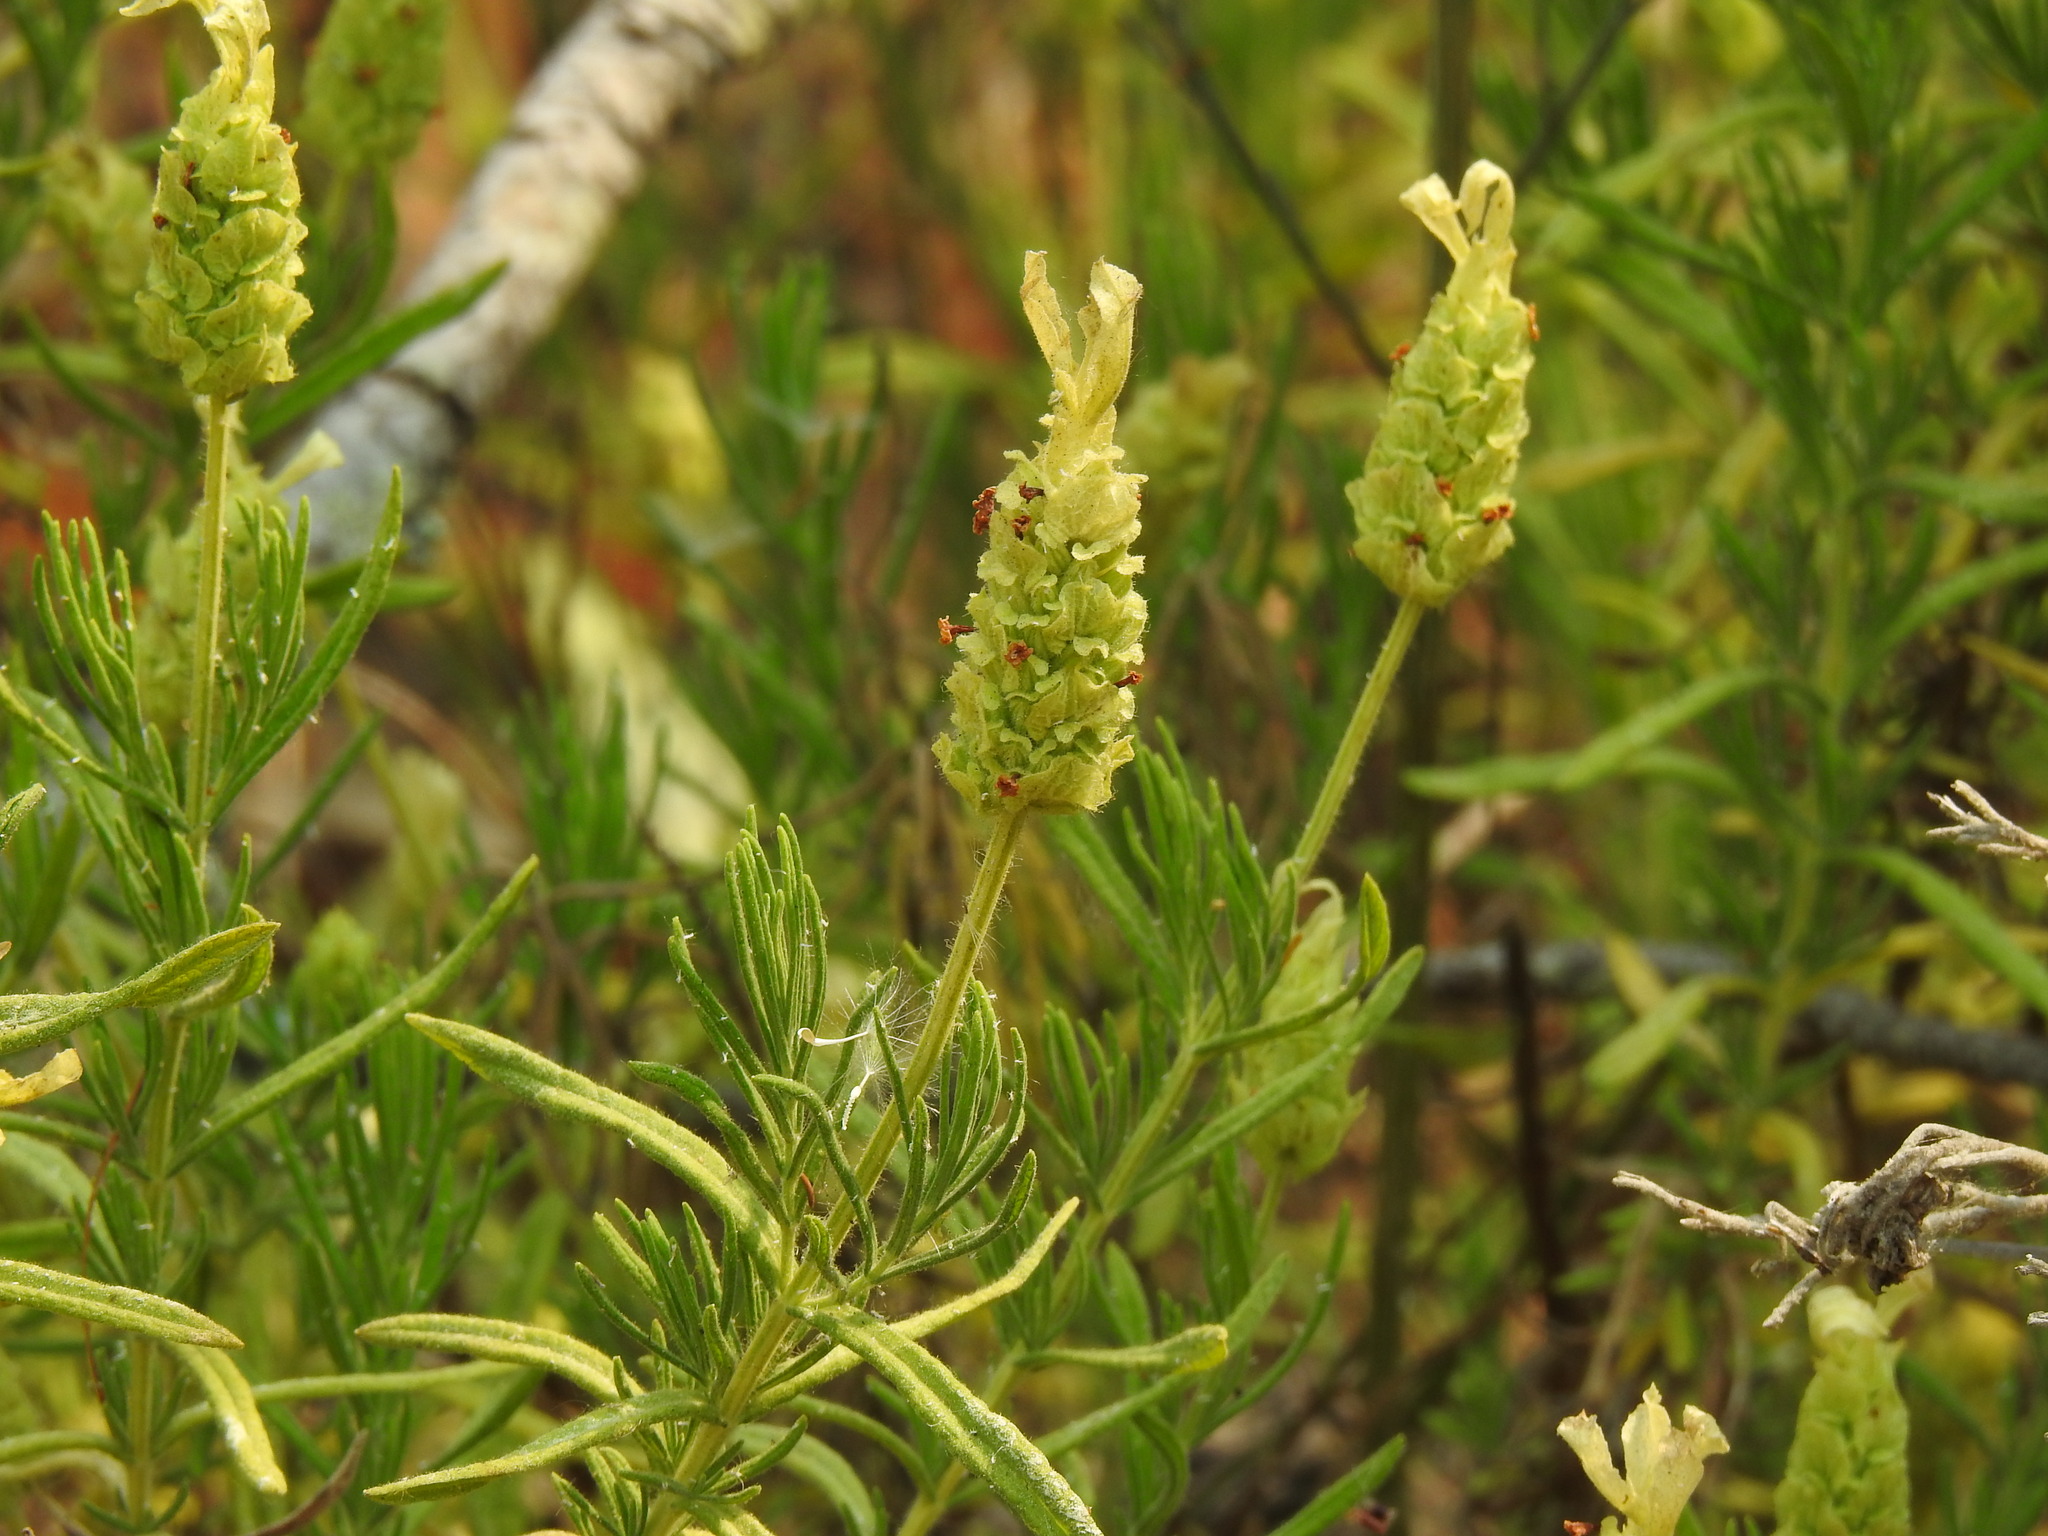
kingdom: Plantae
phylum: Tracheophyta
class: Magnoliopsida
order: Lamiales
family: Lamiaceae
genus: Lavandula
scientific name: Lavandula viridis
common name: Green spanish lavender
